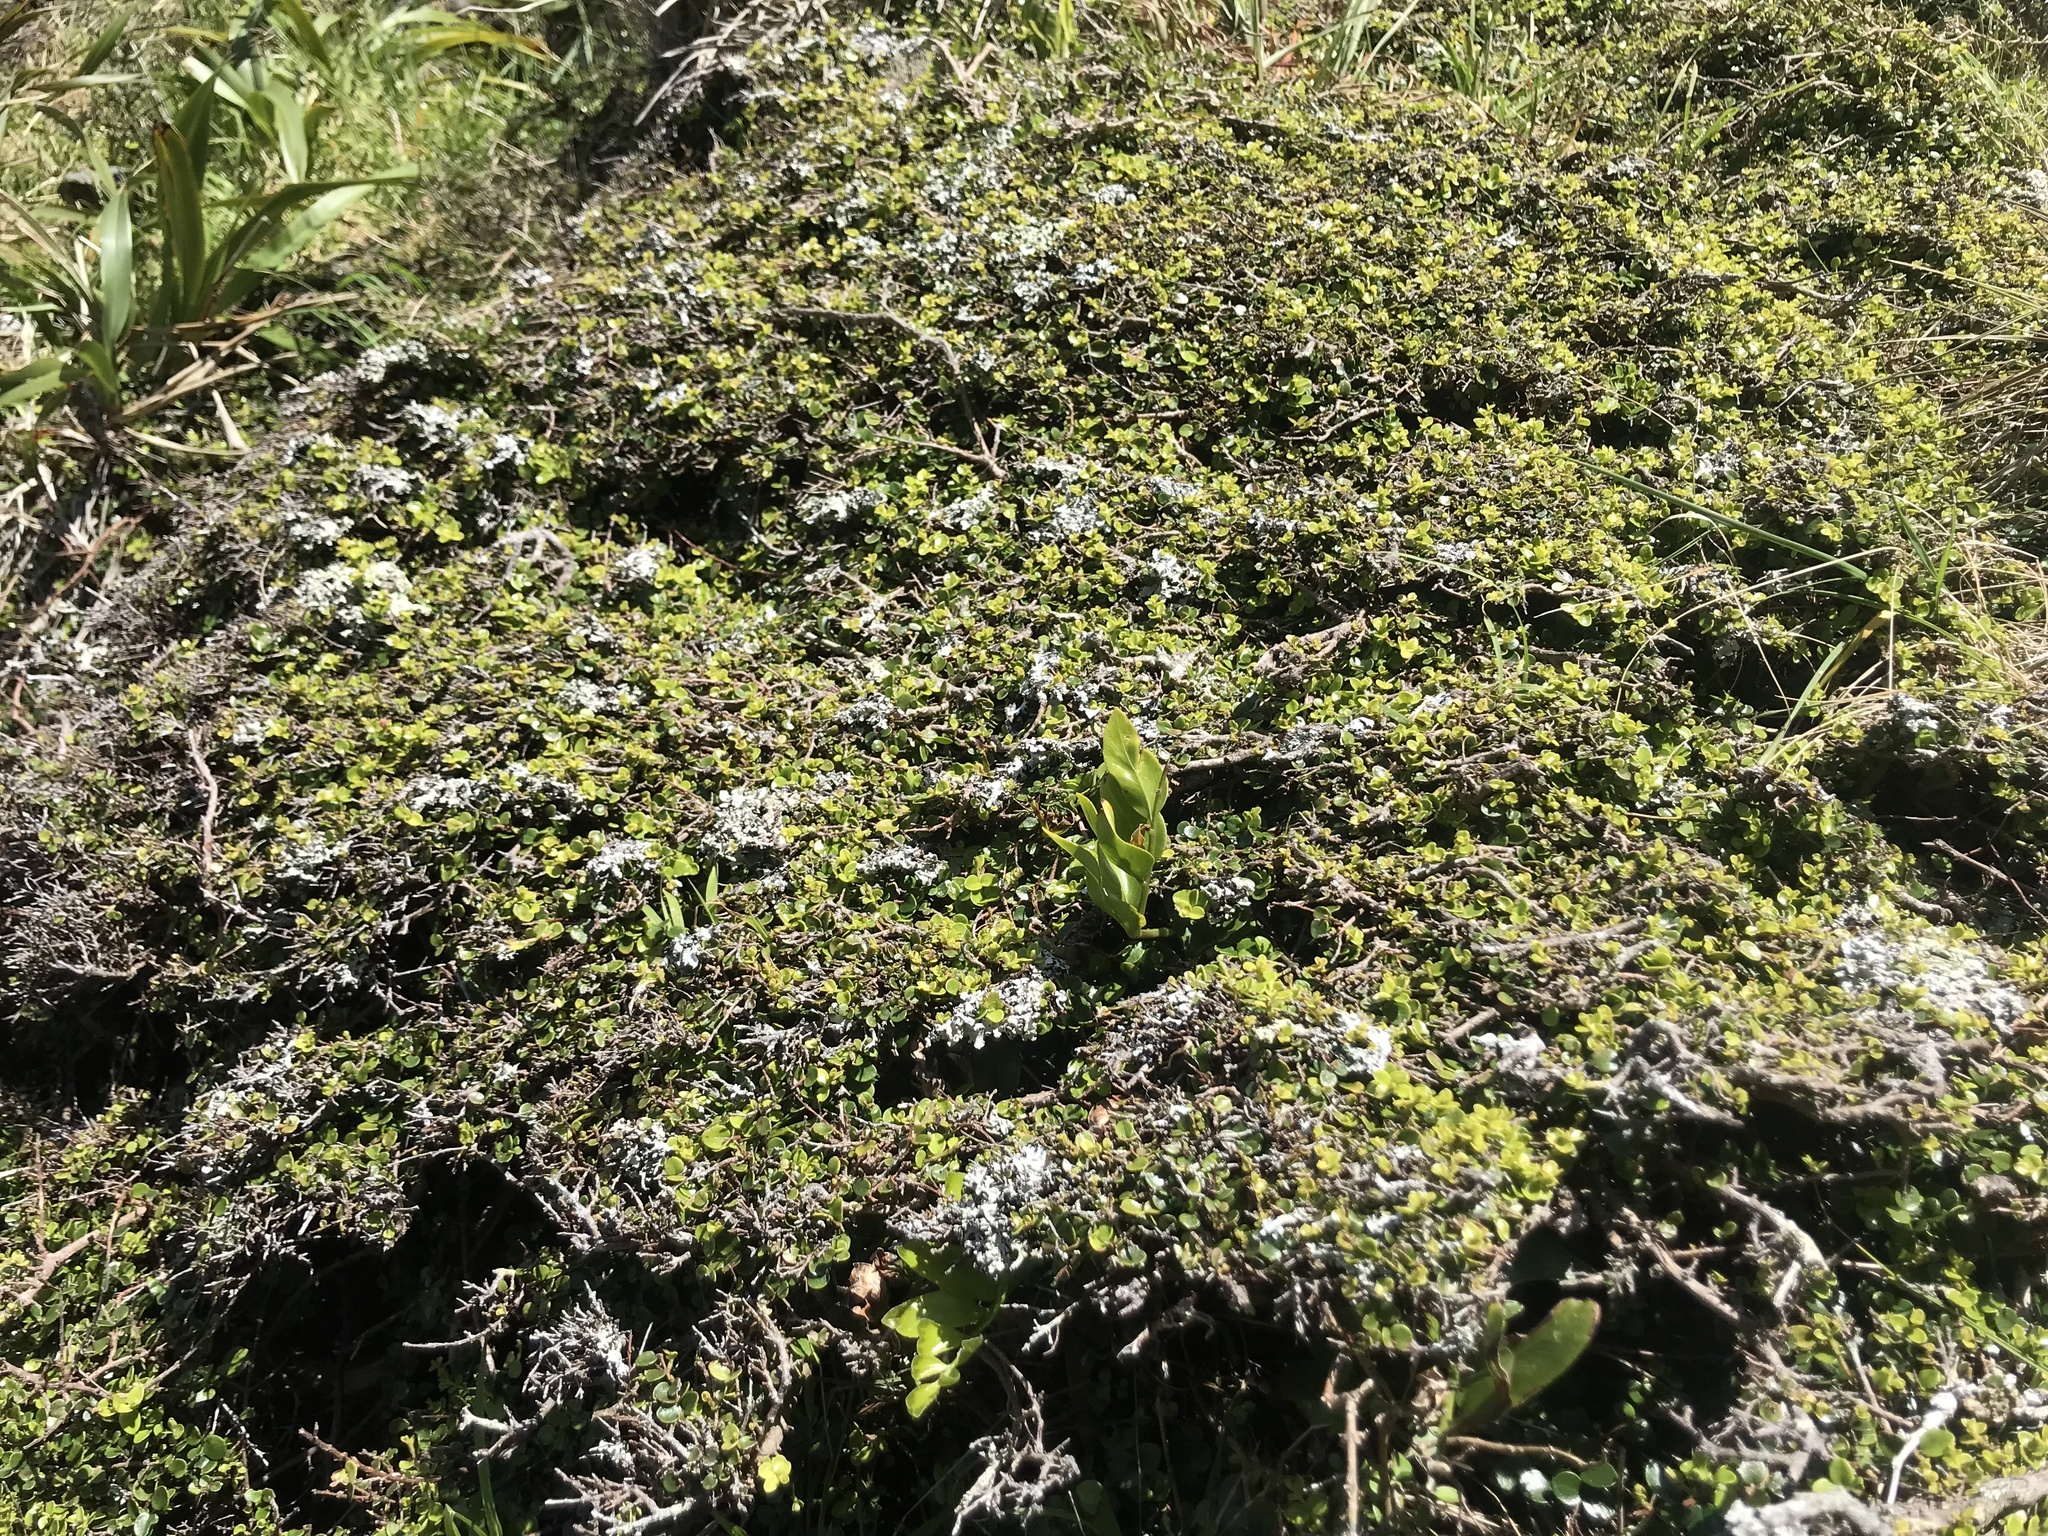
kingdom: Plantae
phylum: Tracheophyta
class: Magnoliopsida
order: Myrtales
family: Myrtaceae
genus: Metrosideros
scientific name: Metrosideros perforata
